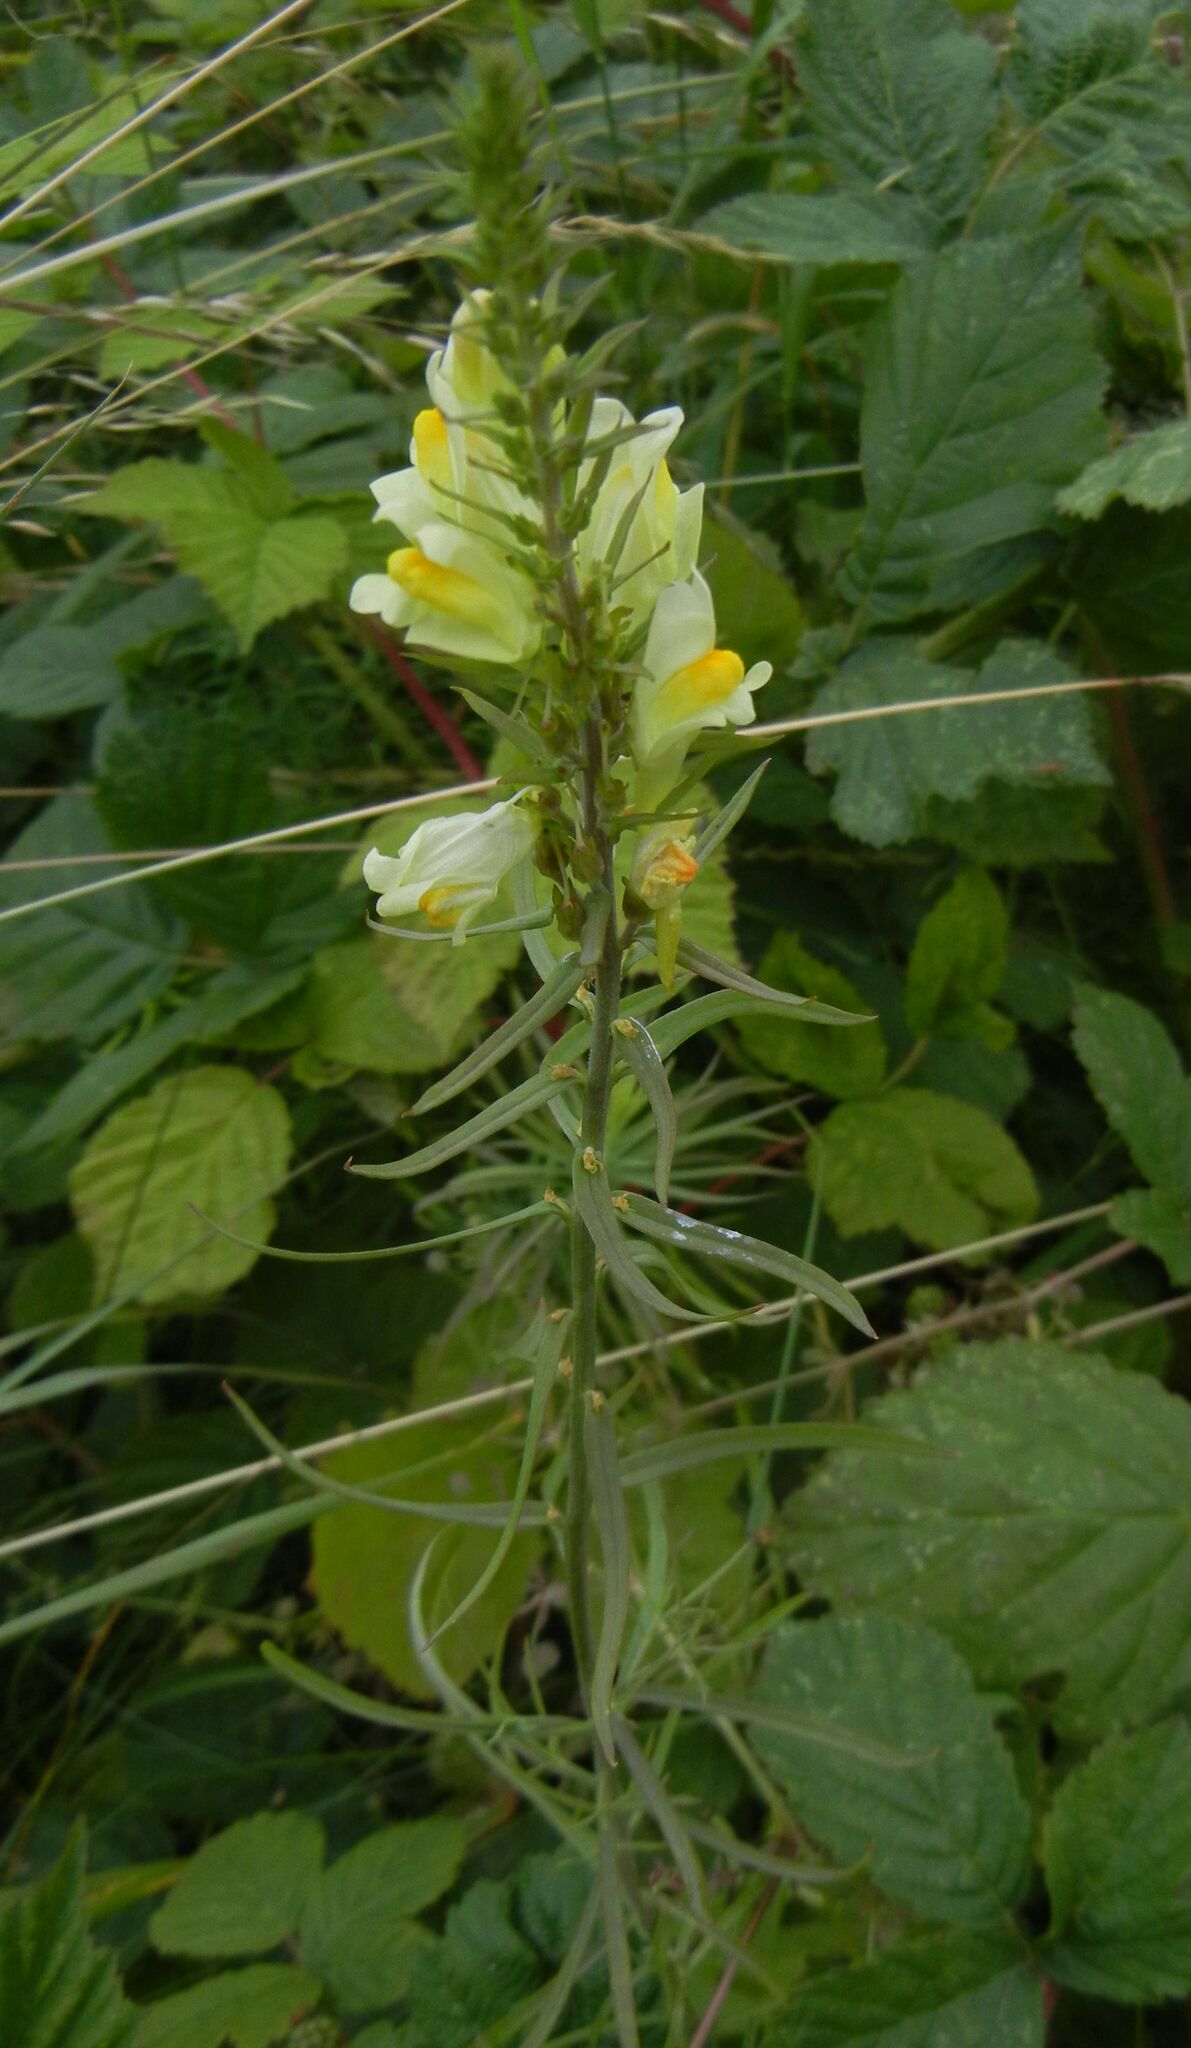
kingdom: Plantae
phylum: Tracheophyta
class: Magnoliopsida
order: Lamiales
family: Plantaginaceae
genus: Linaria
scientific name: Linaria vulgaris
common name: Butter and eggs
